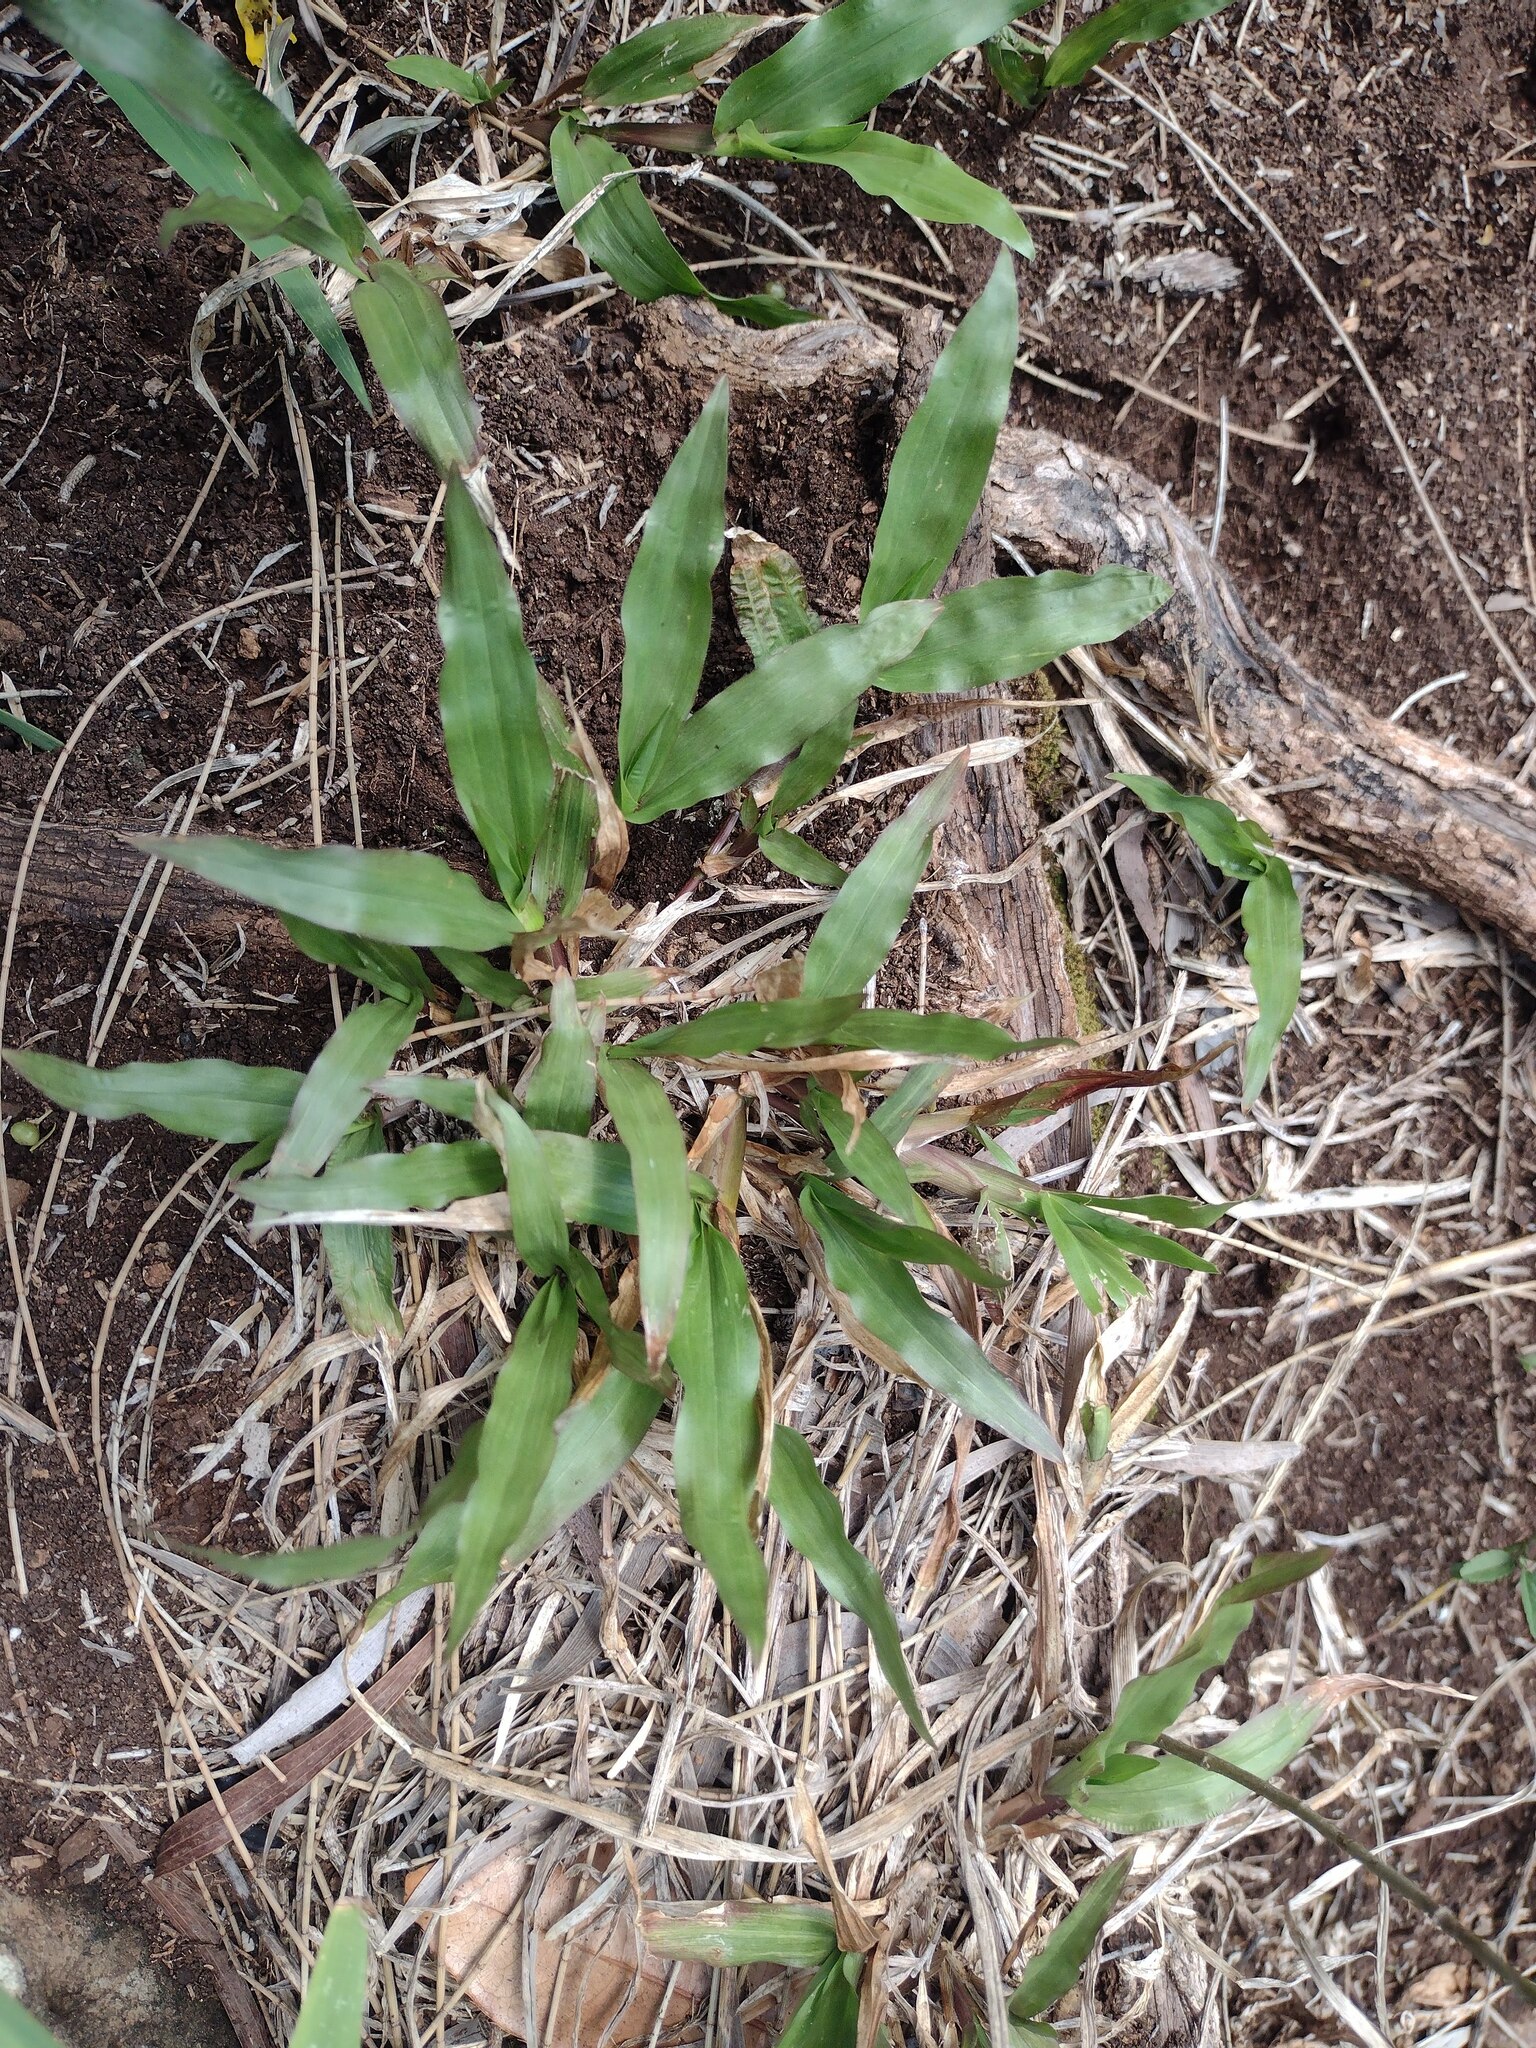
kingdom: Plantae
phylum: Tracheophyta
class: Liliopsida
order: Poales
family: Poaceae
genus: Axonopus
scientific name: Axonopus compressus
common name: American carpet grass
